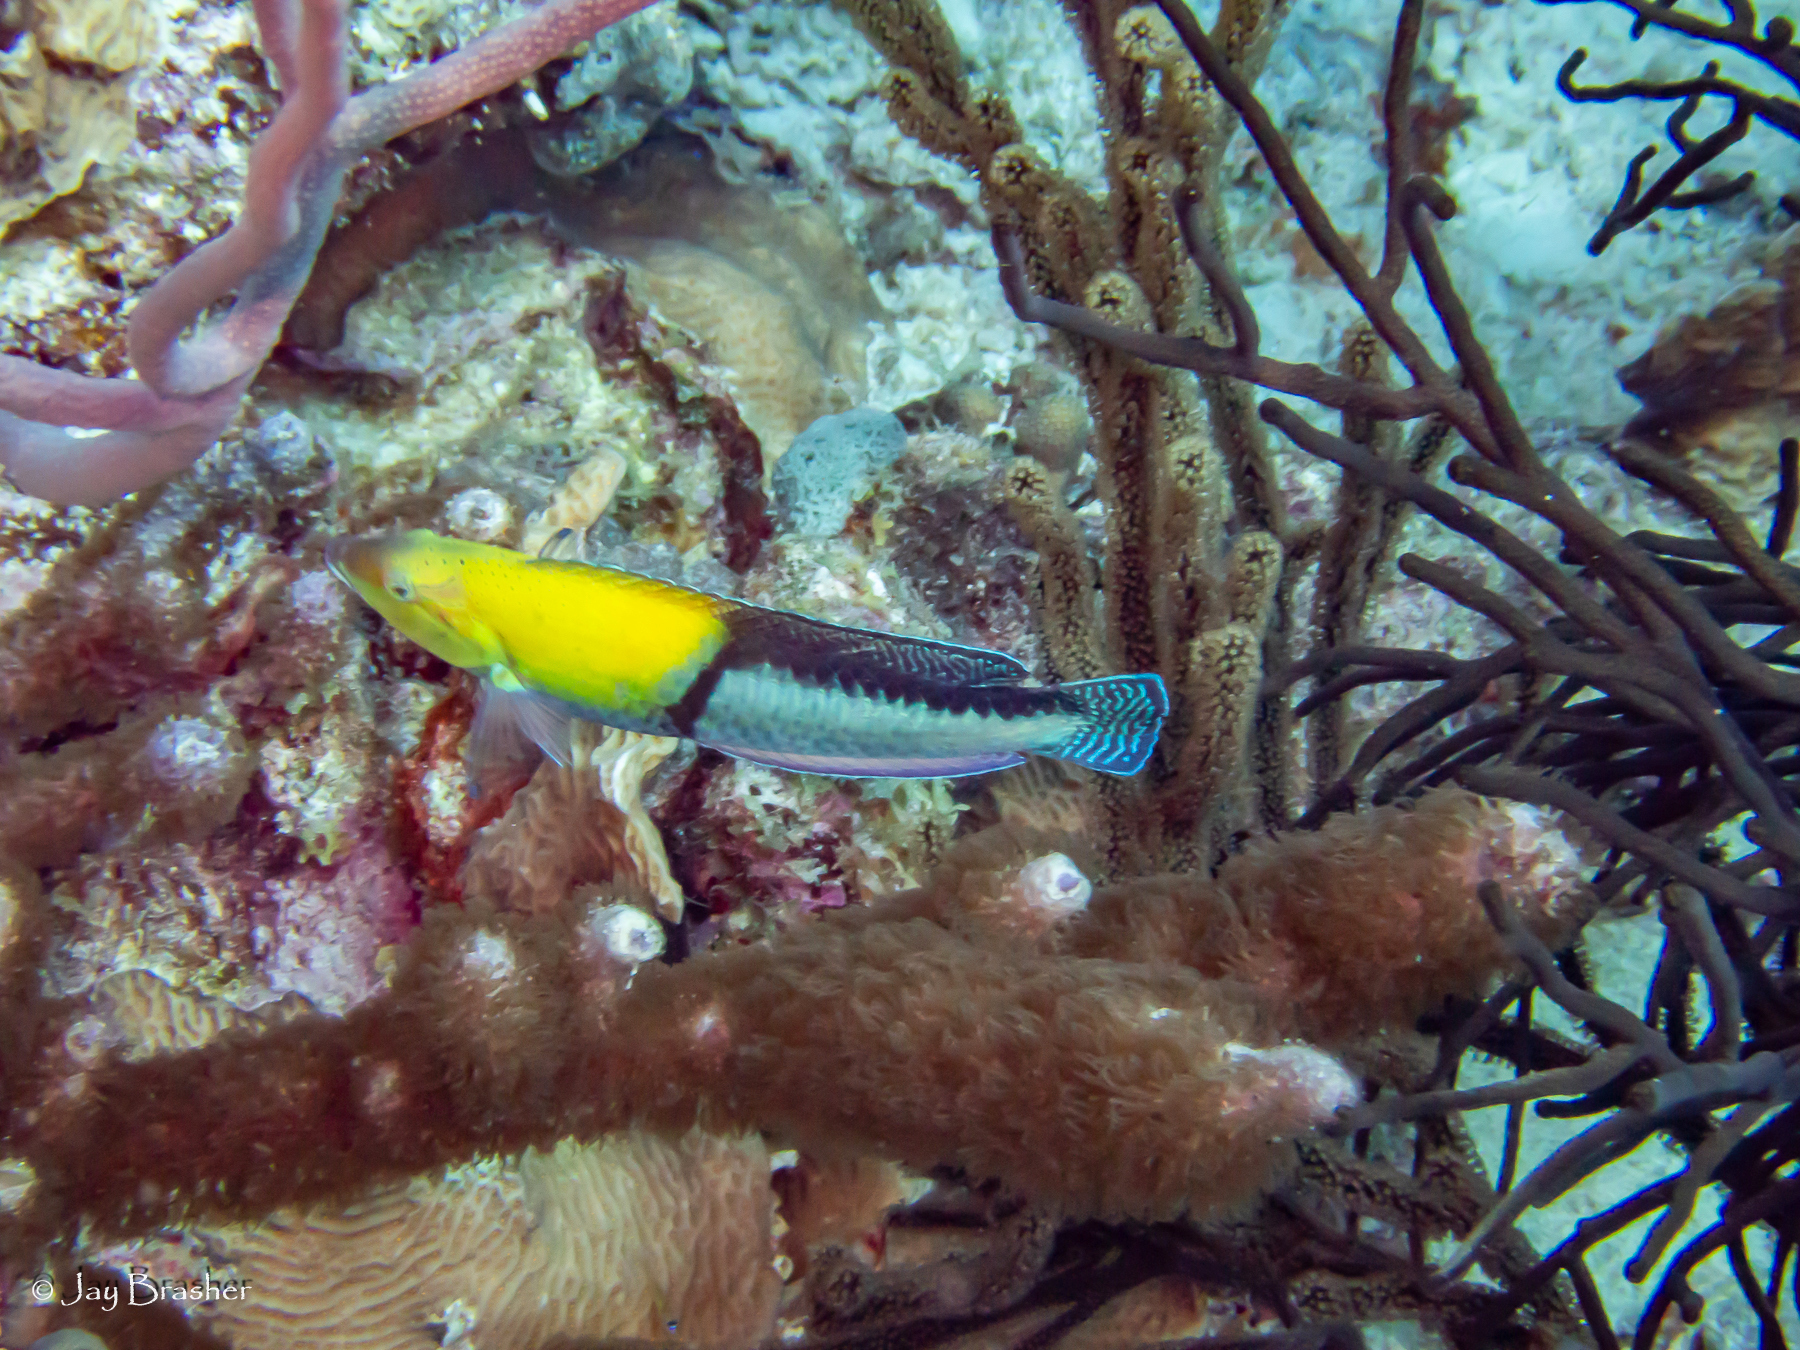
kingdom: Animalia
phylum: Chordata
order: Perciformes
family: Labridae
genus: Halichoeres
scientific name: Halichoeres garnoti
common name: Yellowhead wrasse
